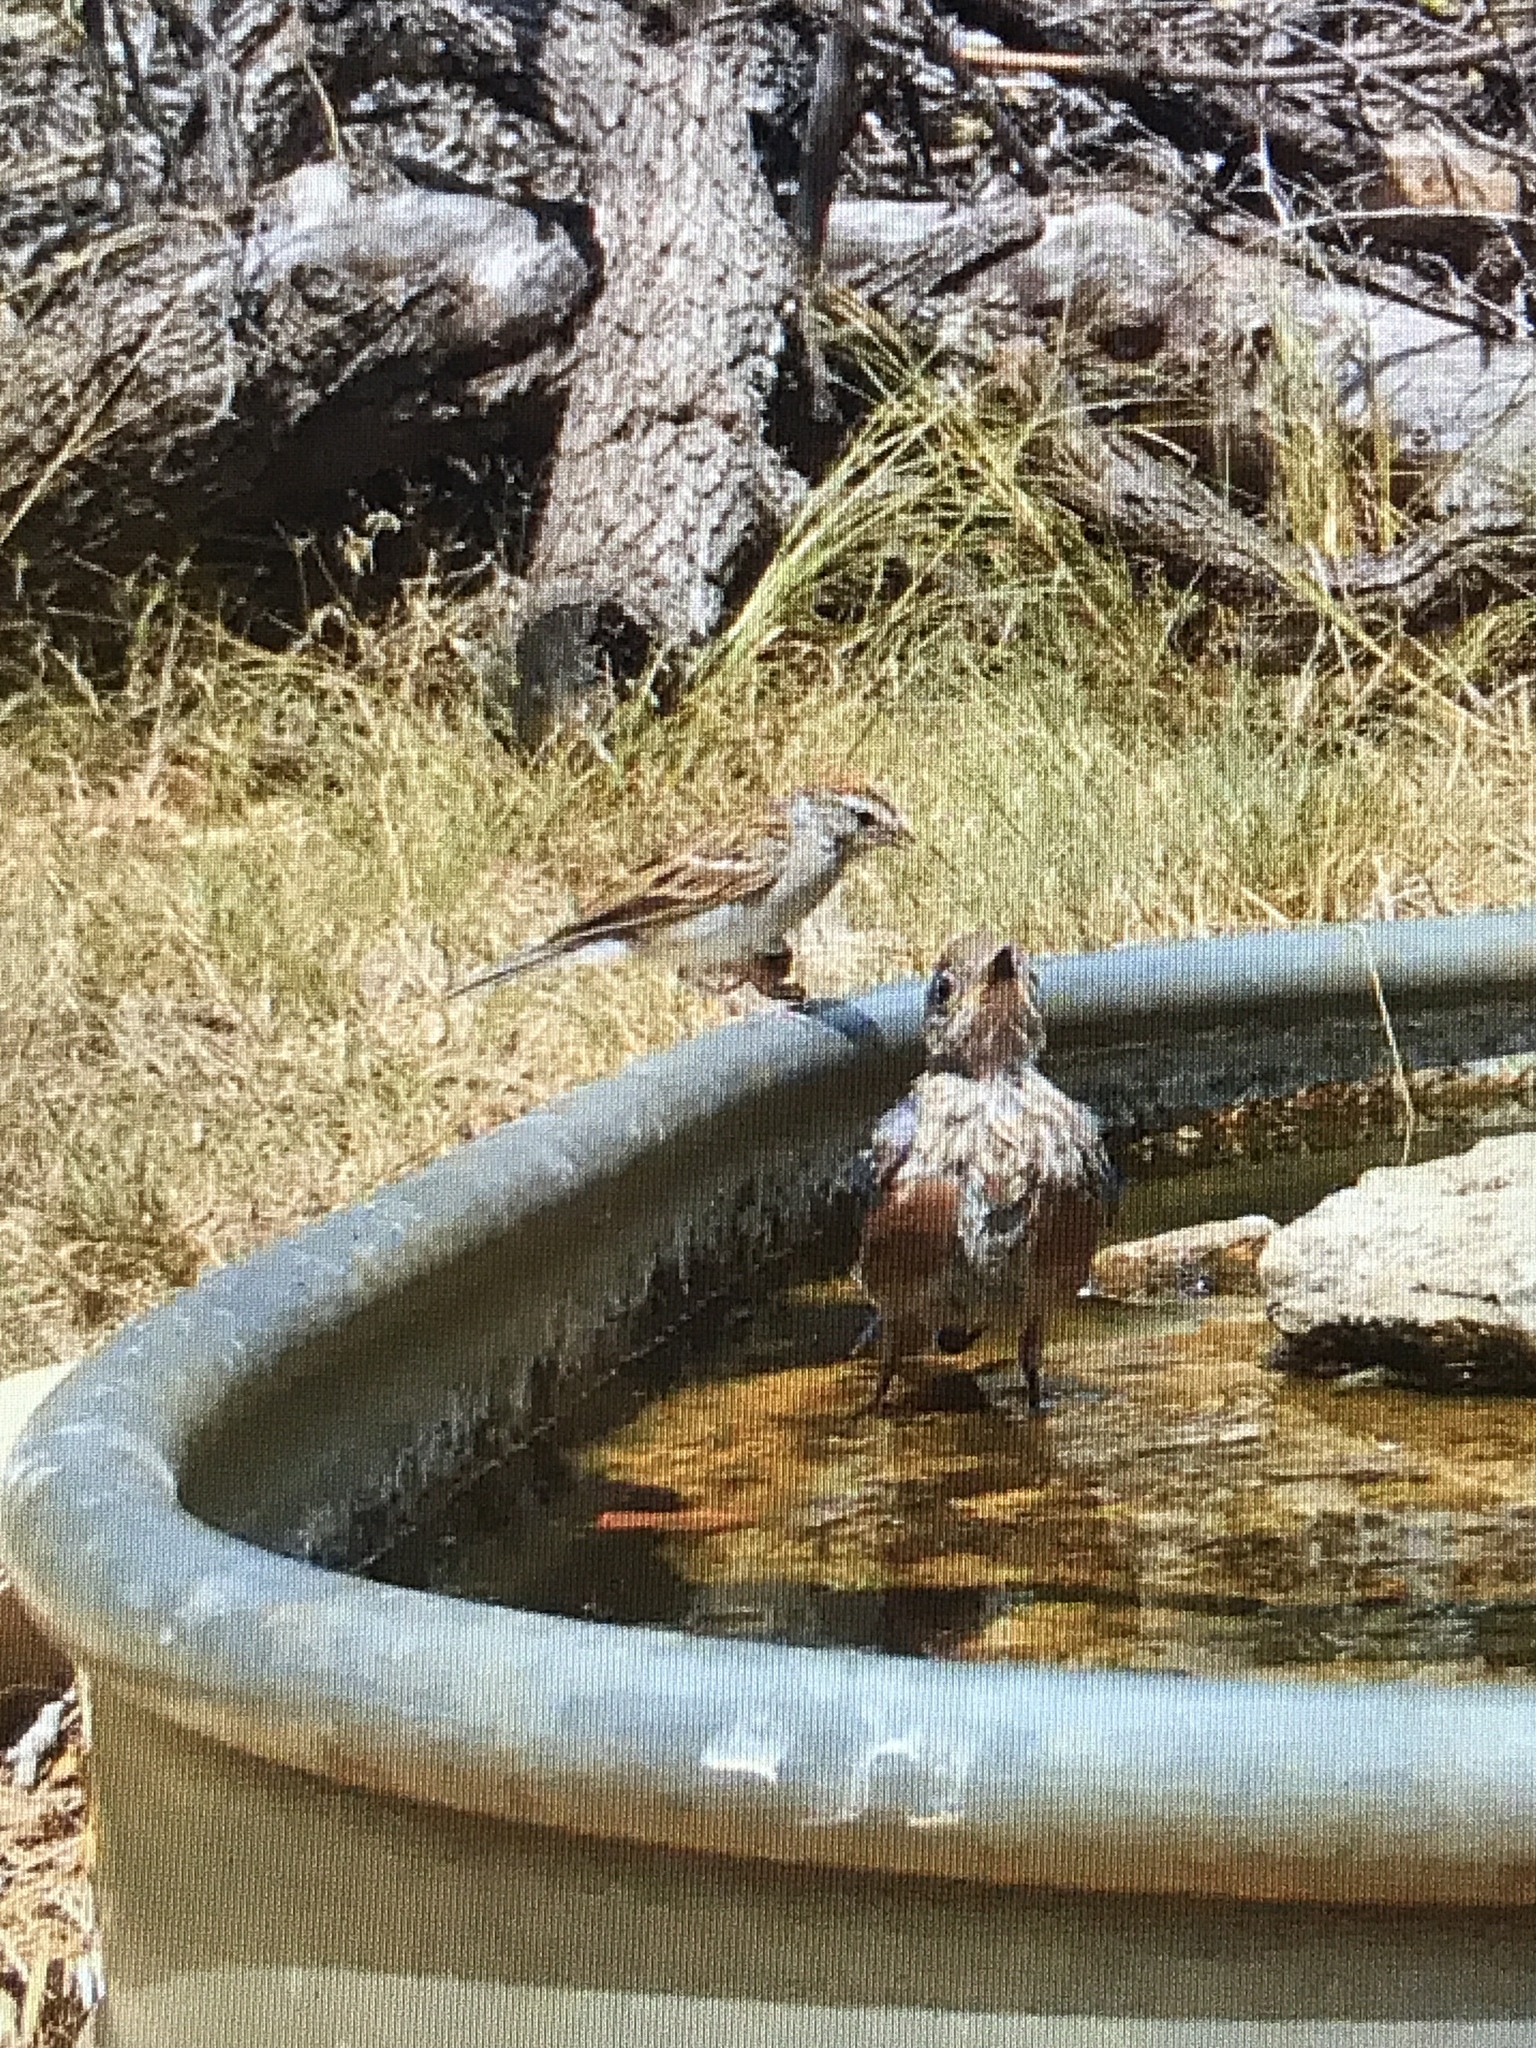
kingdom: Animalia
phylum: Chordata
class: Aves
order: Passeriformes
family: Passerellidae
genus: Spizella
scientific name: Spizella passerina
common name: Chipping sparrow
